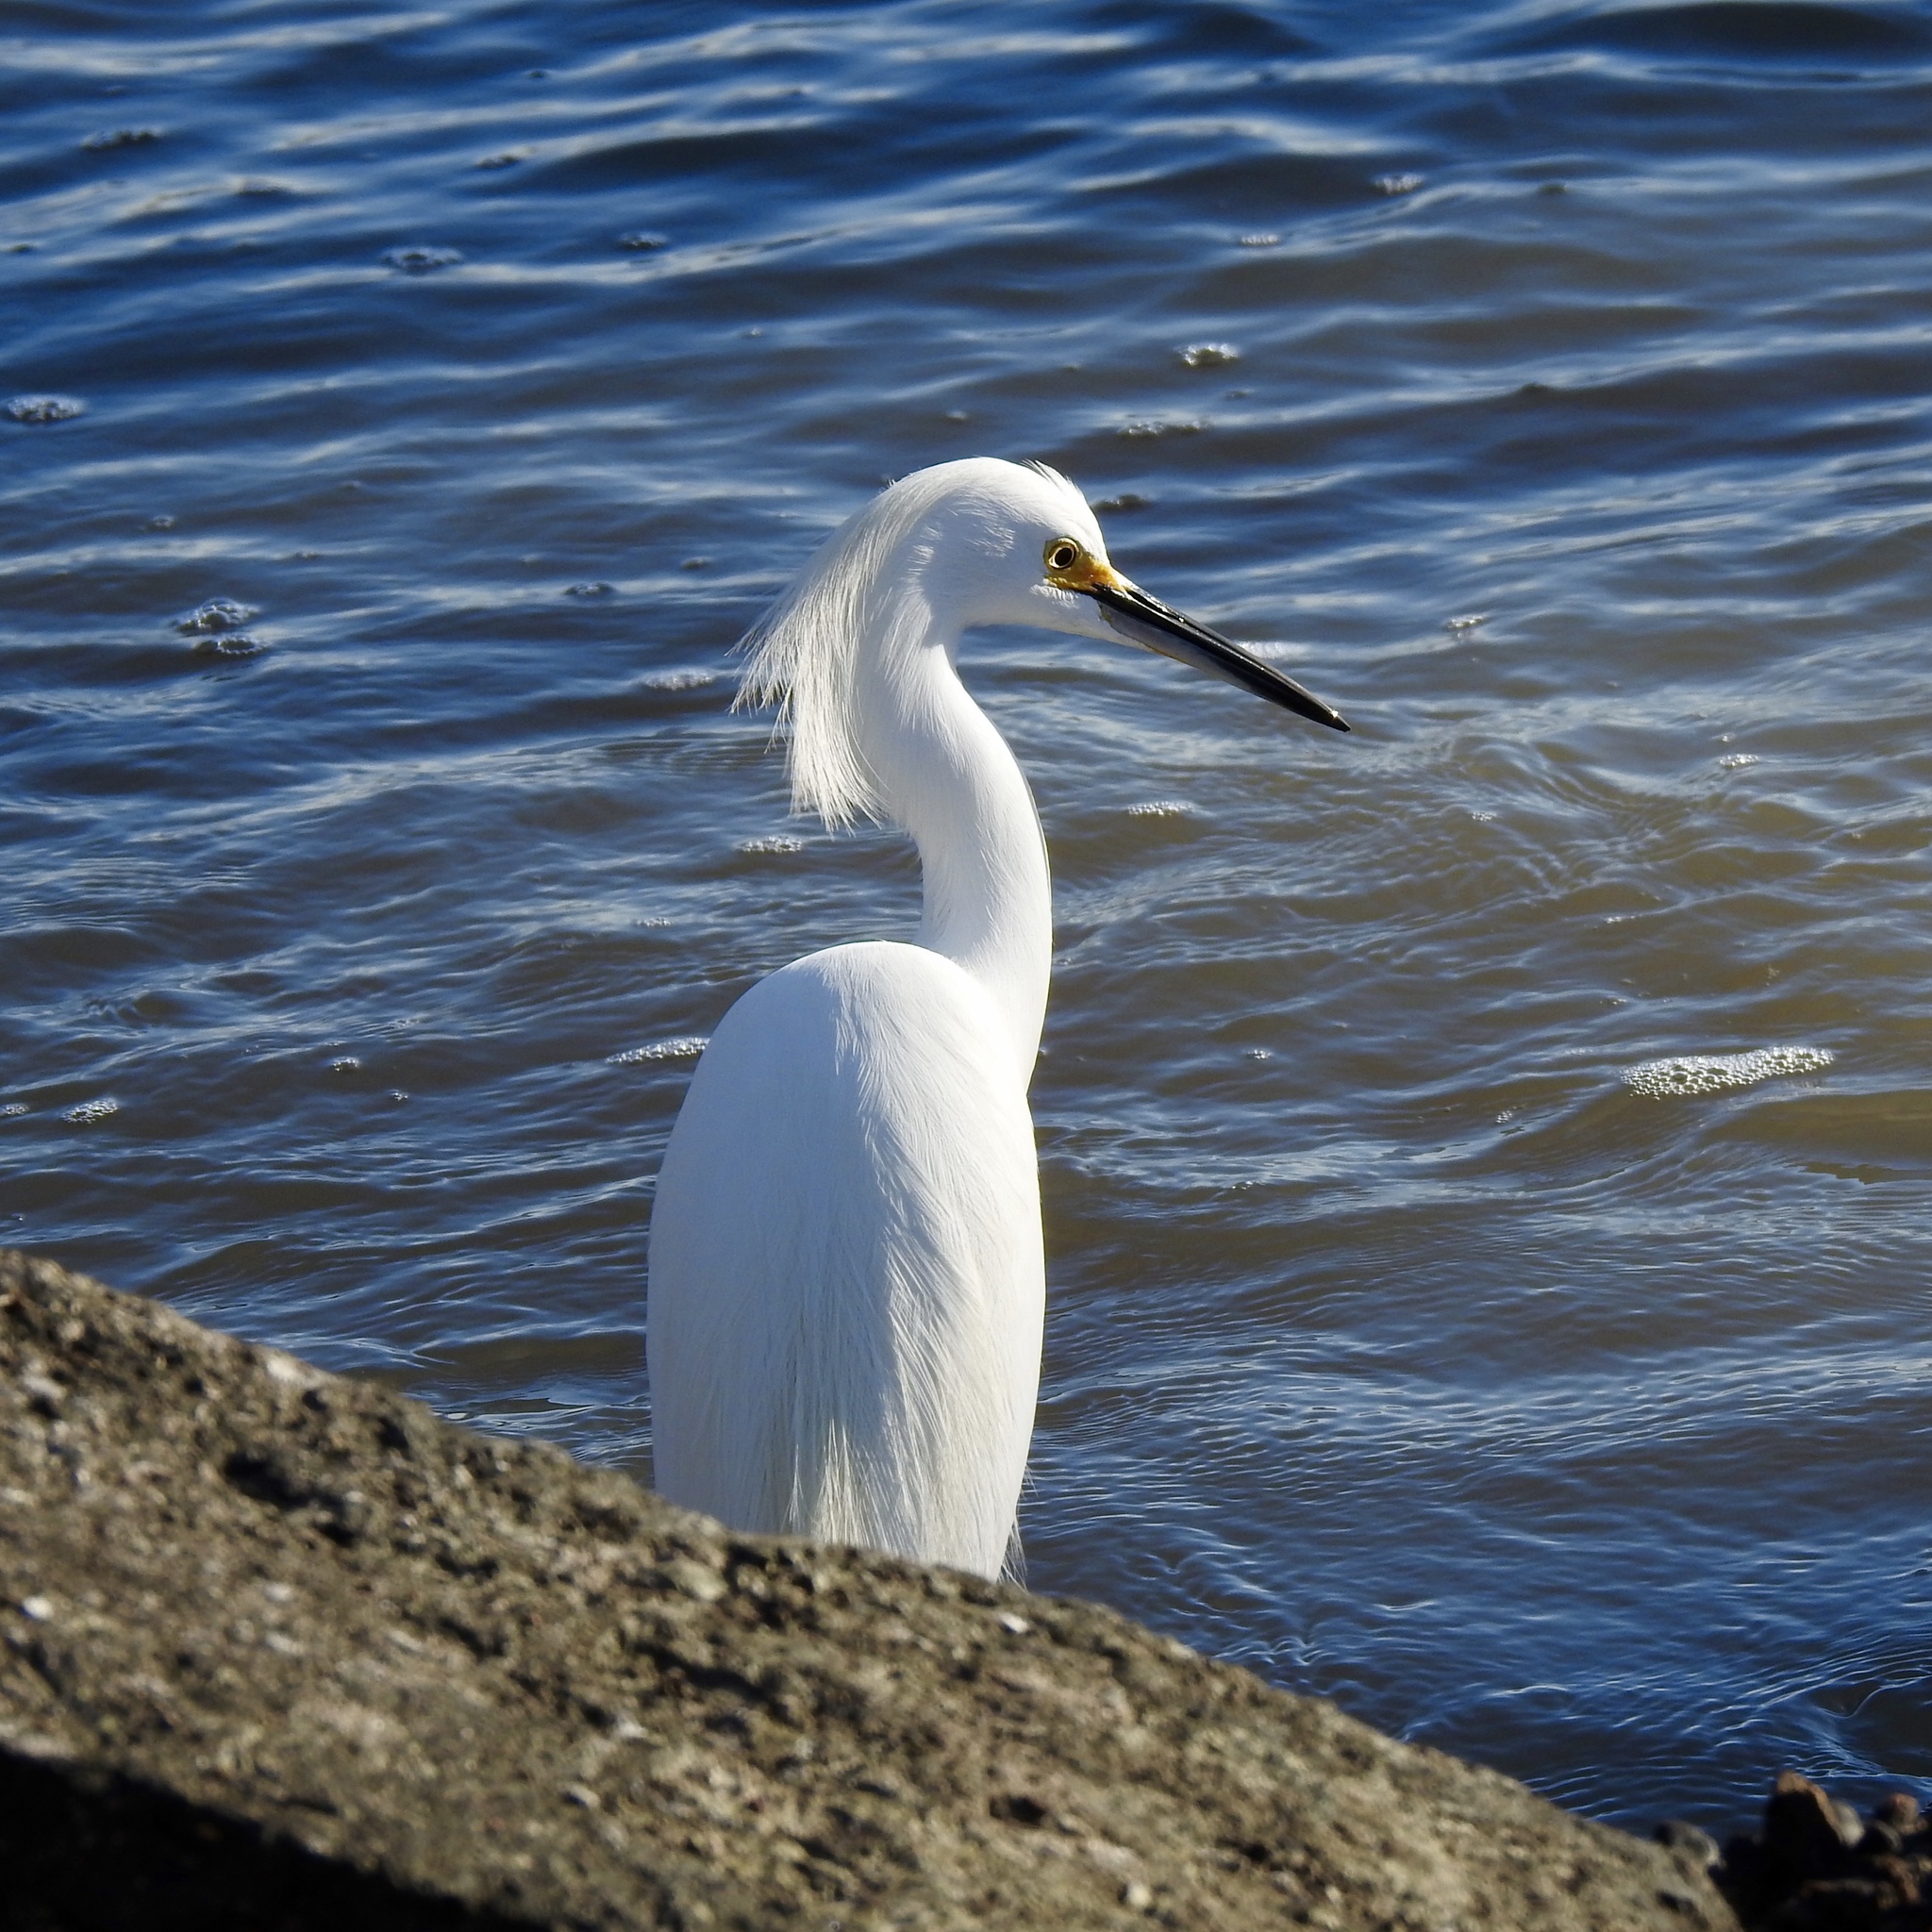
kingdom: Animalia
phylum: Chordata
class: Aves
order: Pelecaniformes
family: Ardeidae
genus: Egretta
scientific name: Egretta thula
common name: Snowy egret
